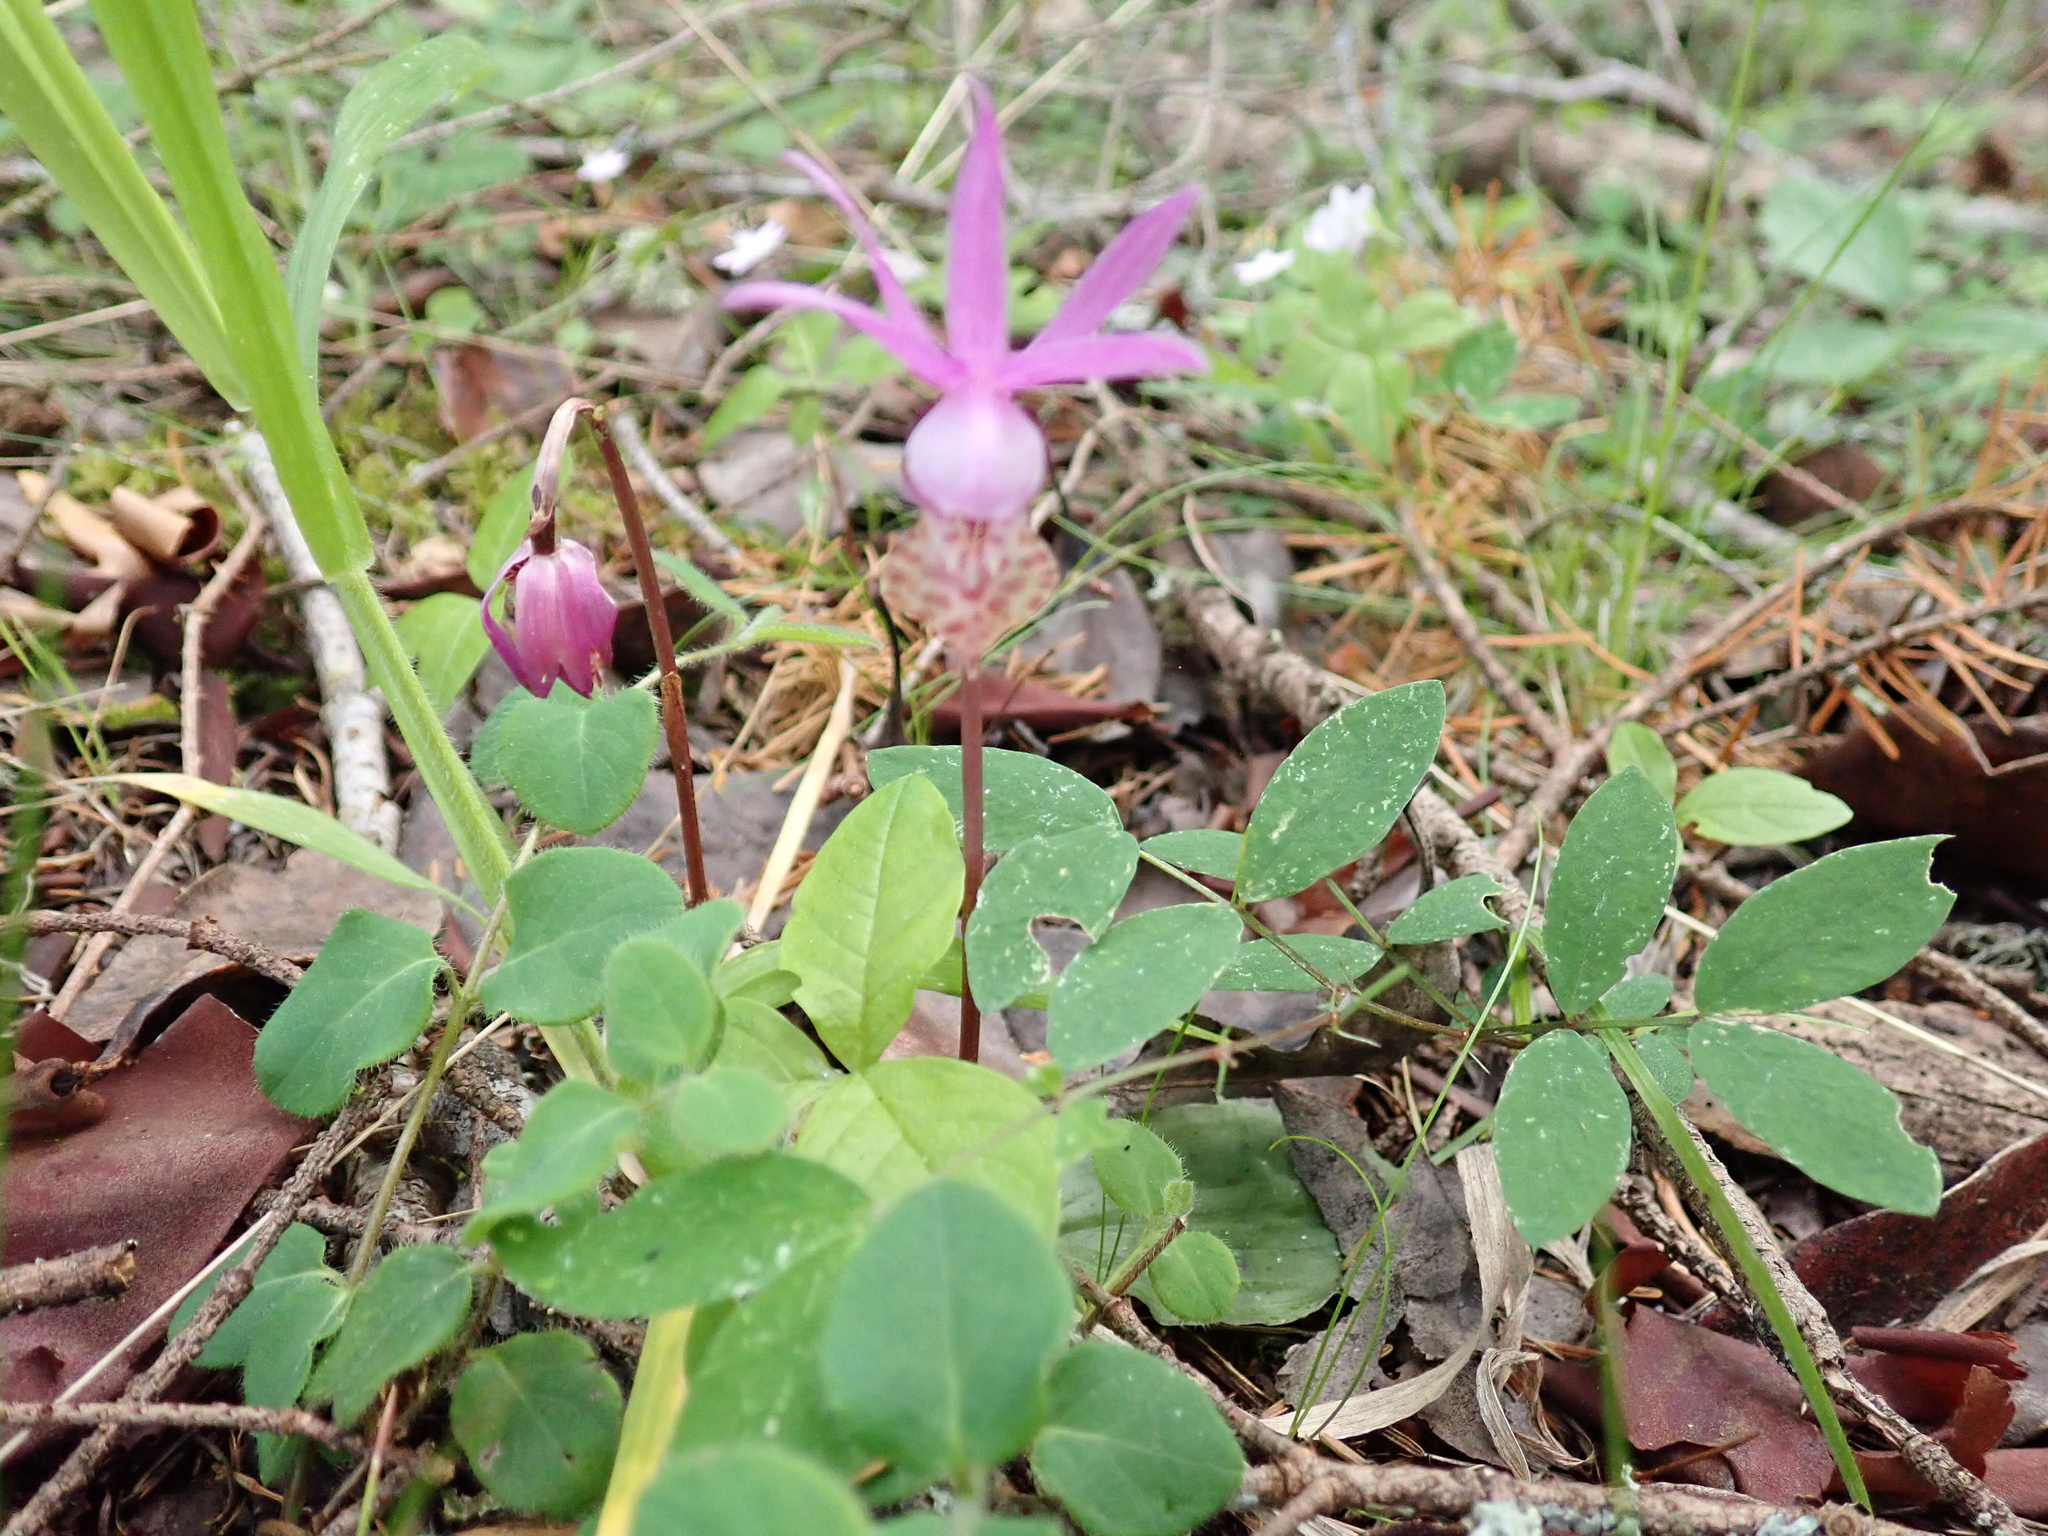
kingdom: Plantae
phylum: Tracheophyta
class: Liliopsida
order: Asparagales
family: Orchidaceae
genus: Calypso
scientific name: Calypso bulbosa
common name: Calypso
